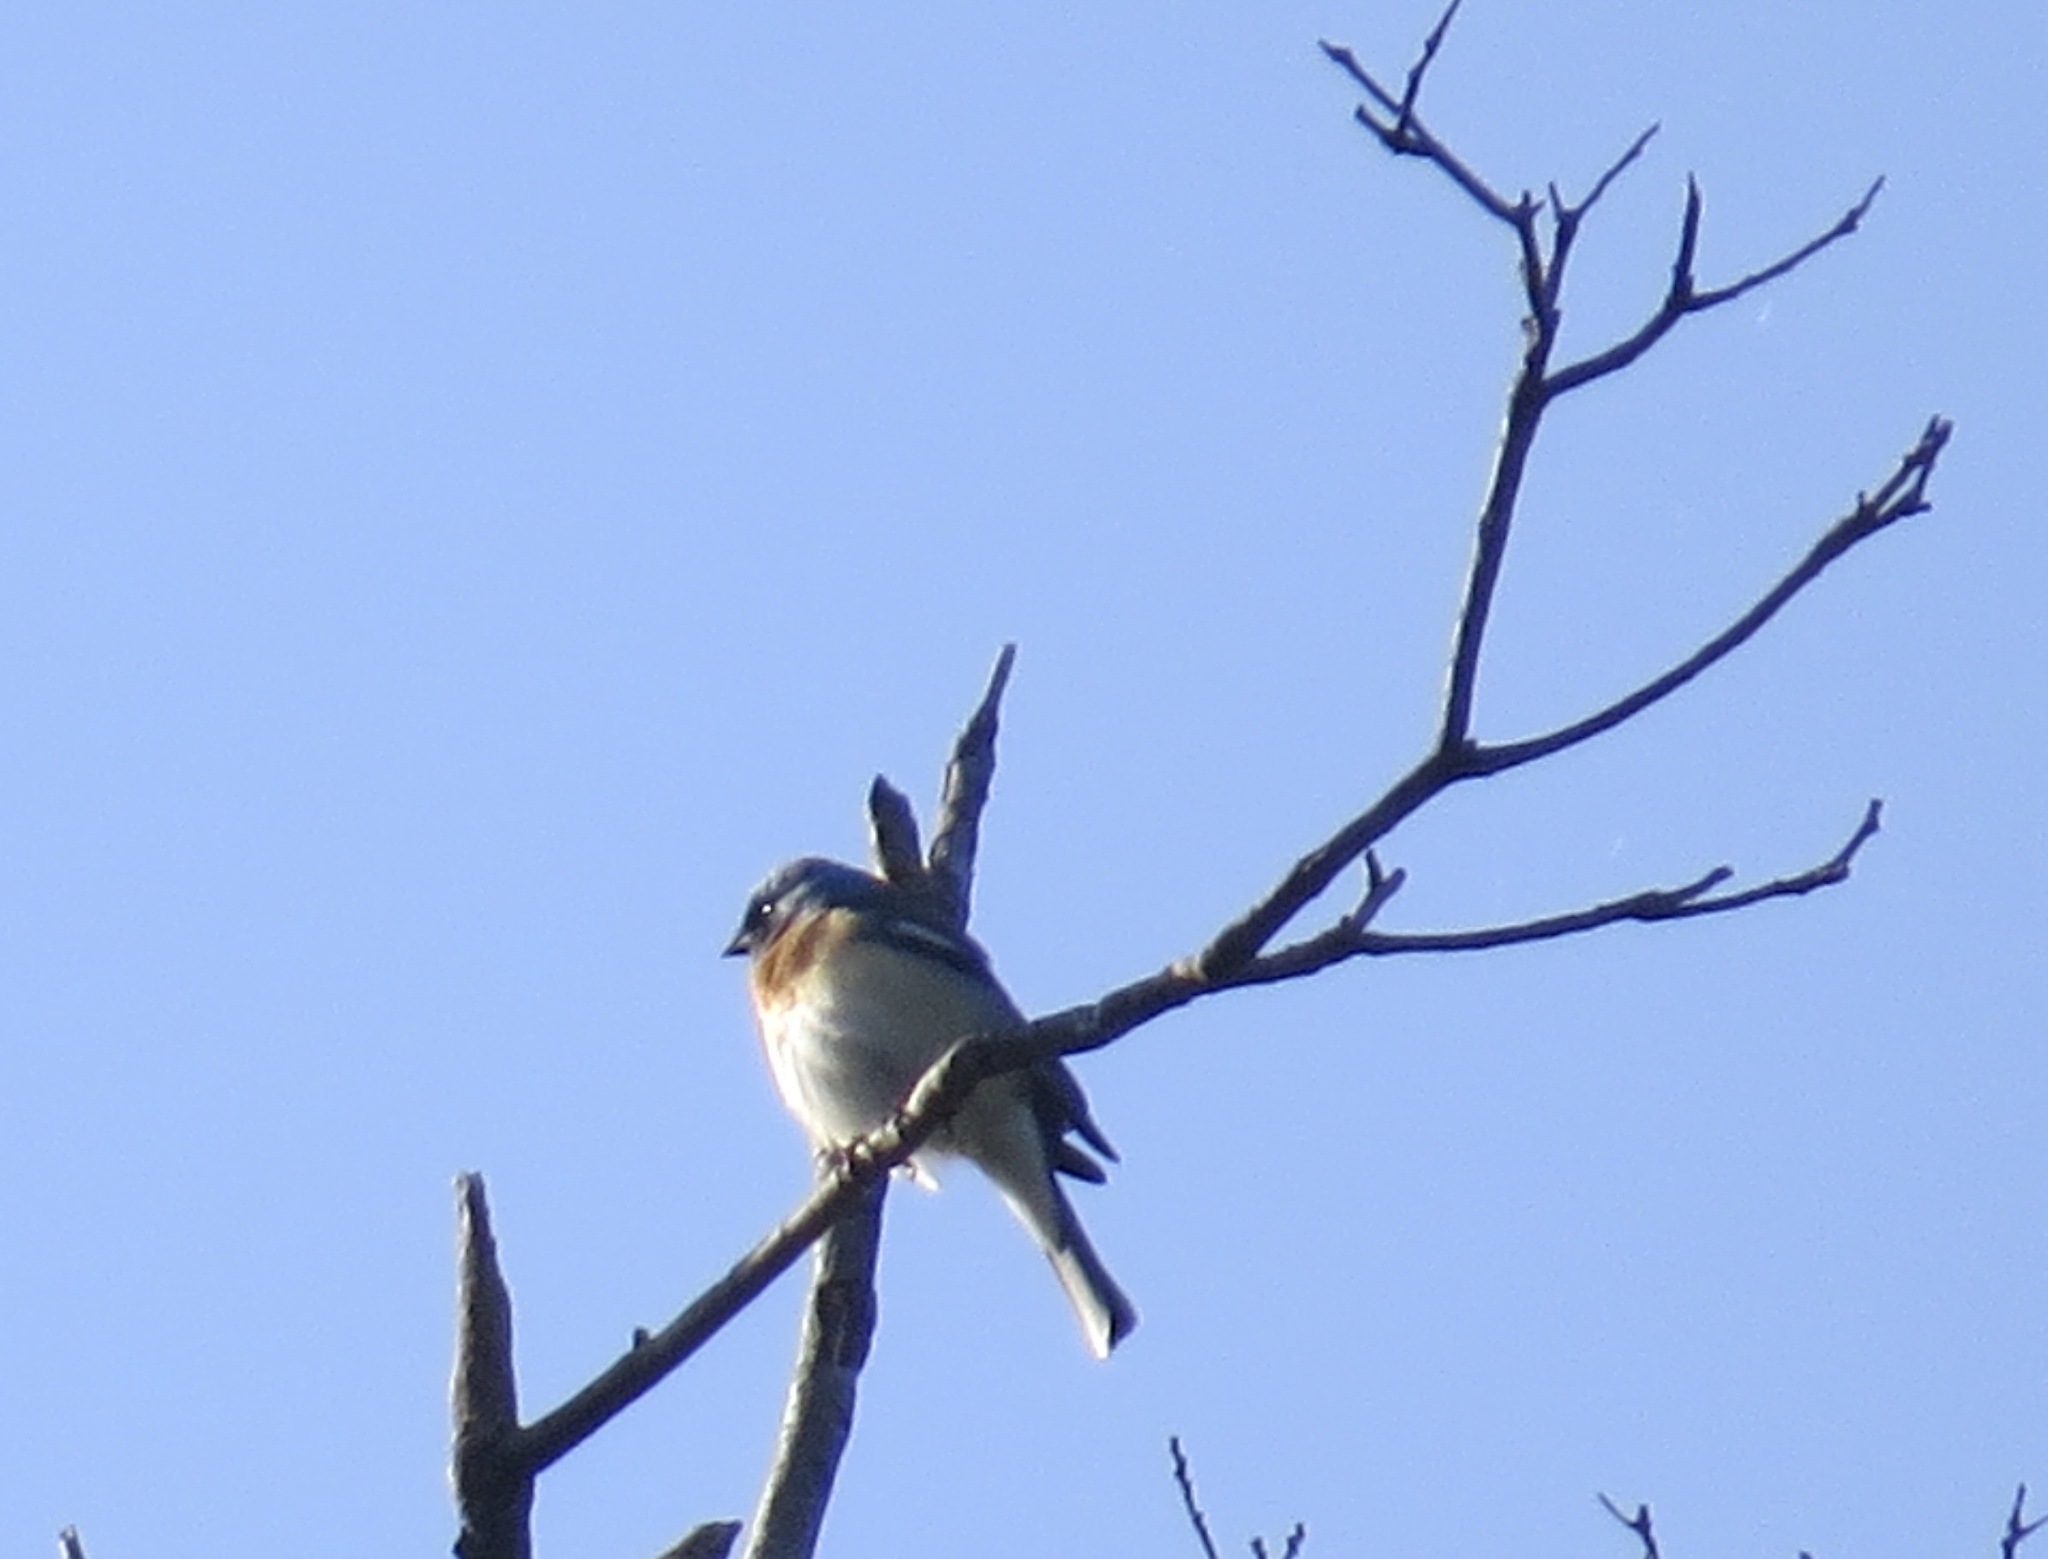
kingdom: Animalia
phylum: Chordata
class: Aves
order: Passeriformes
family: Cardinalidae
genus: Passerina
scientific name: Passerina amoena
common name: Lazuli bunting
